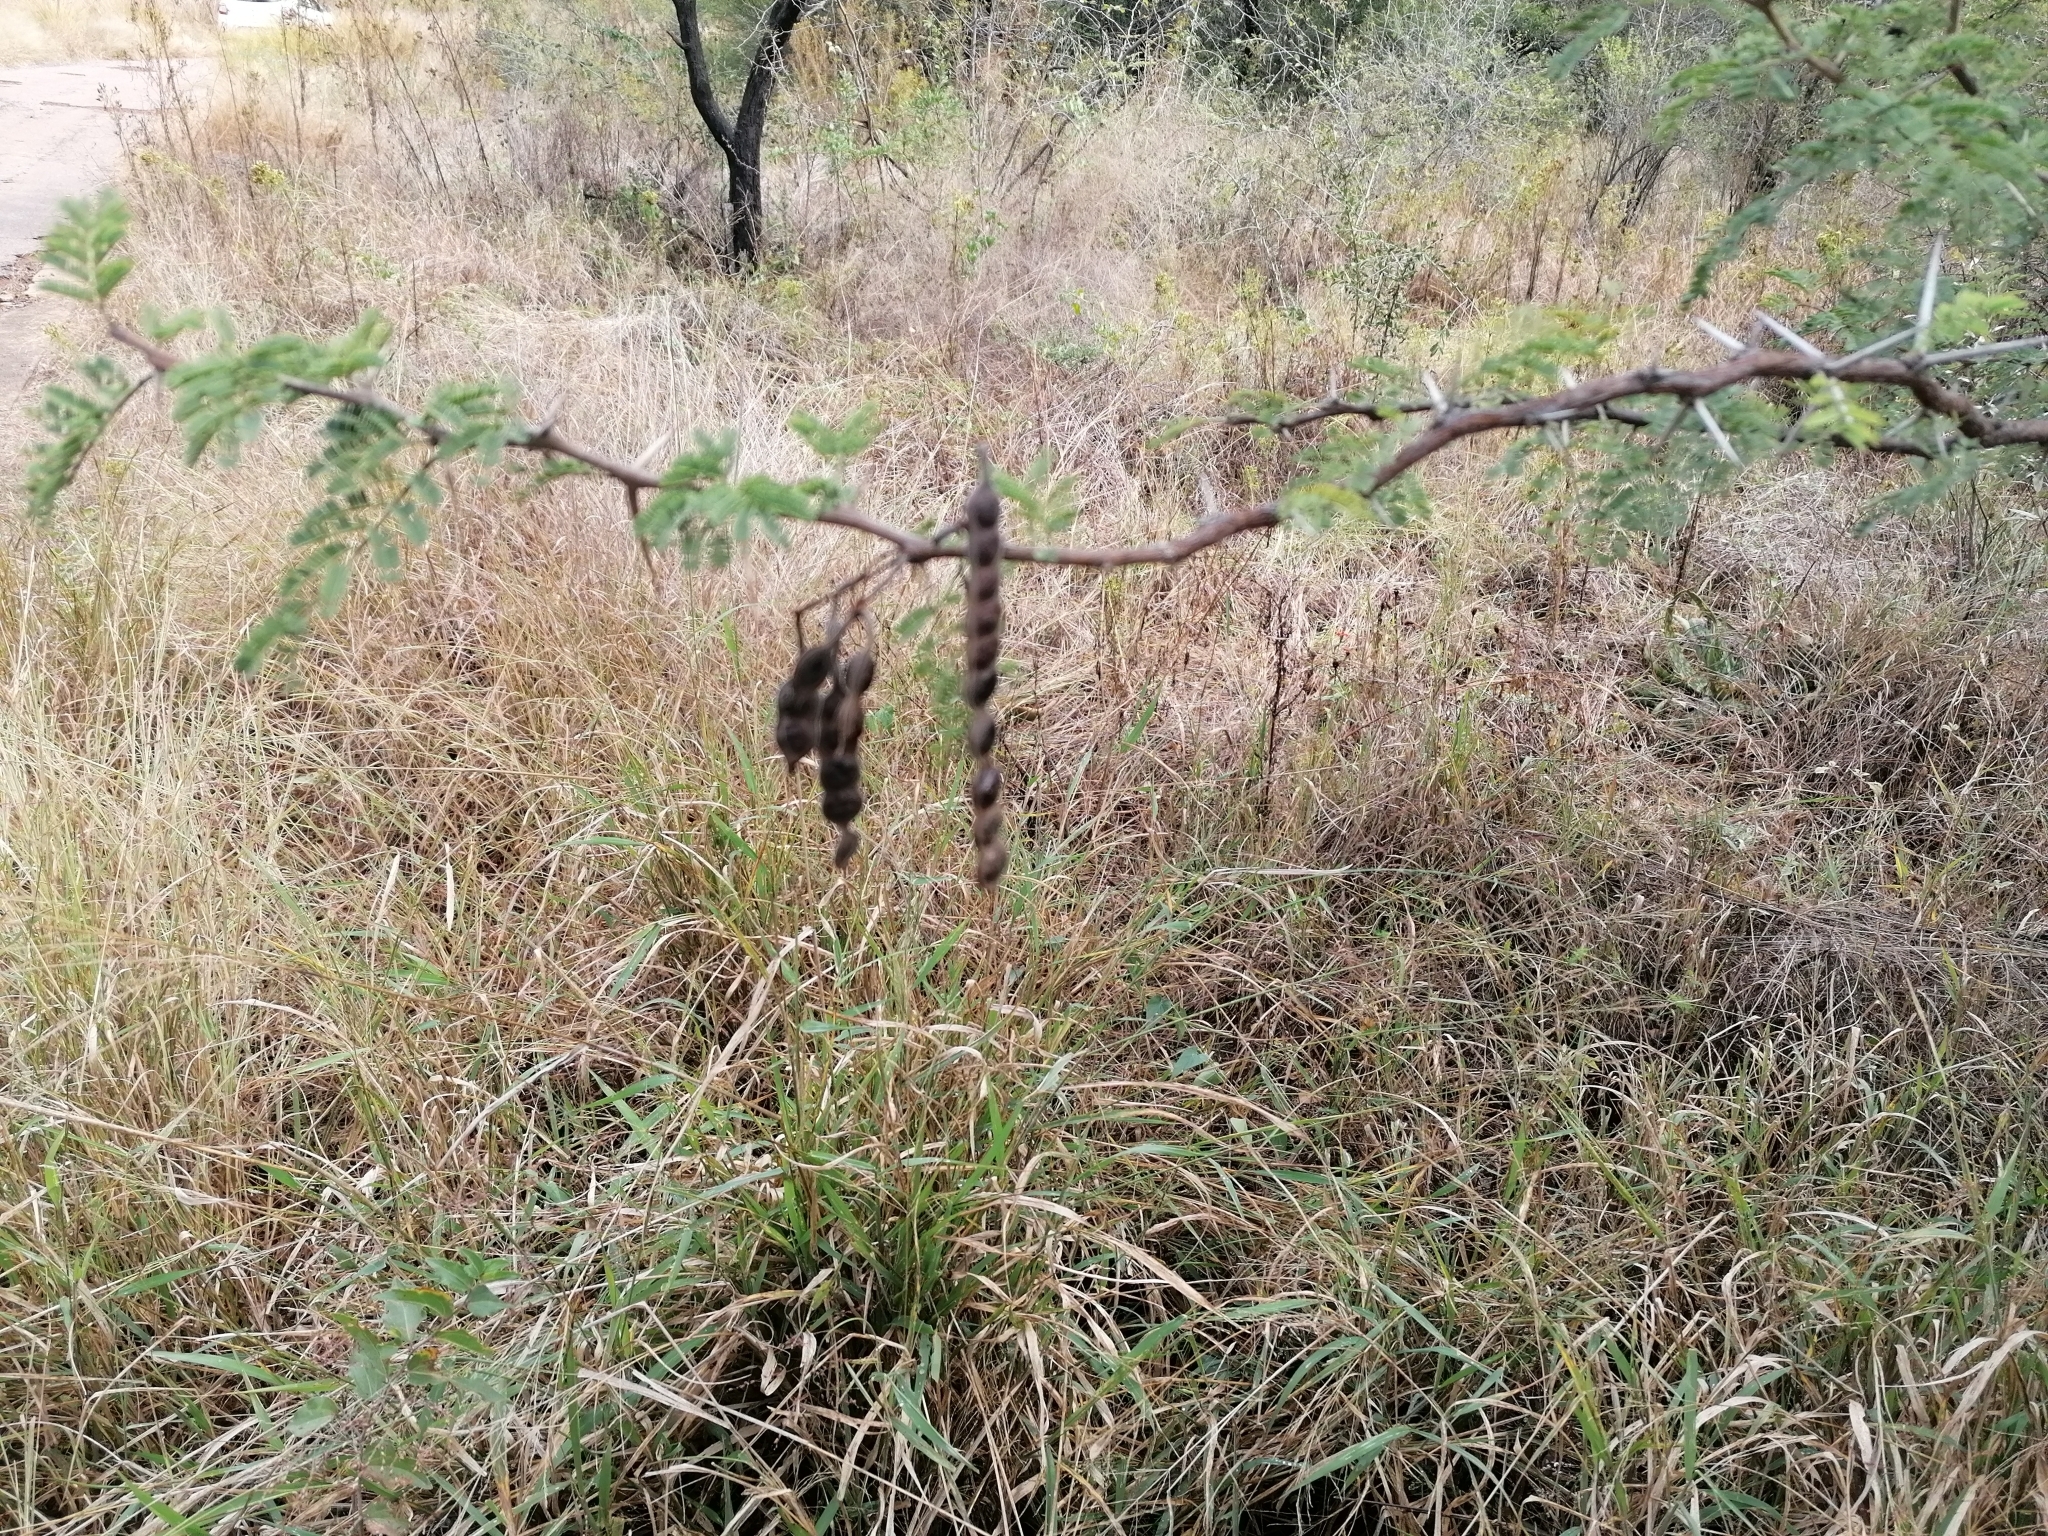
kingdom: Plantae
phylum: Tracheophyta
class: Magnoliopsida
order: Fabales
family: Fabaceae
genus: Vachellia
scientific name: Vachellia nilotica
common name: Arabic gumtree
